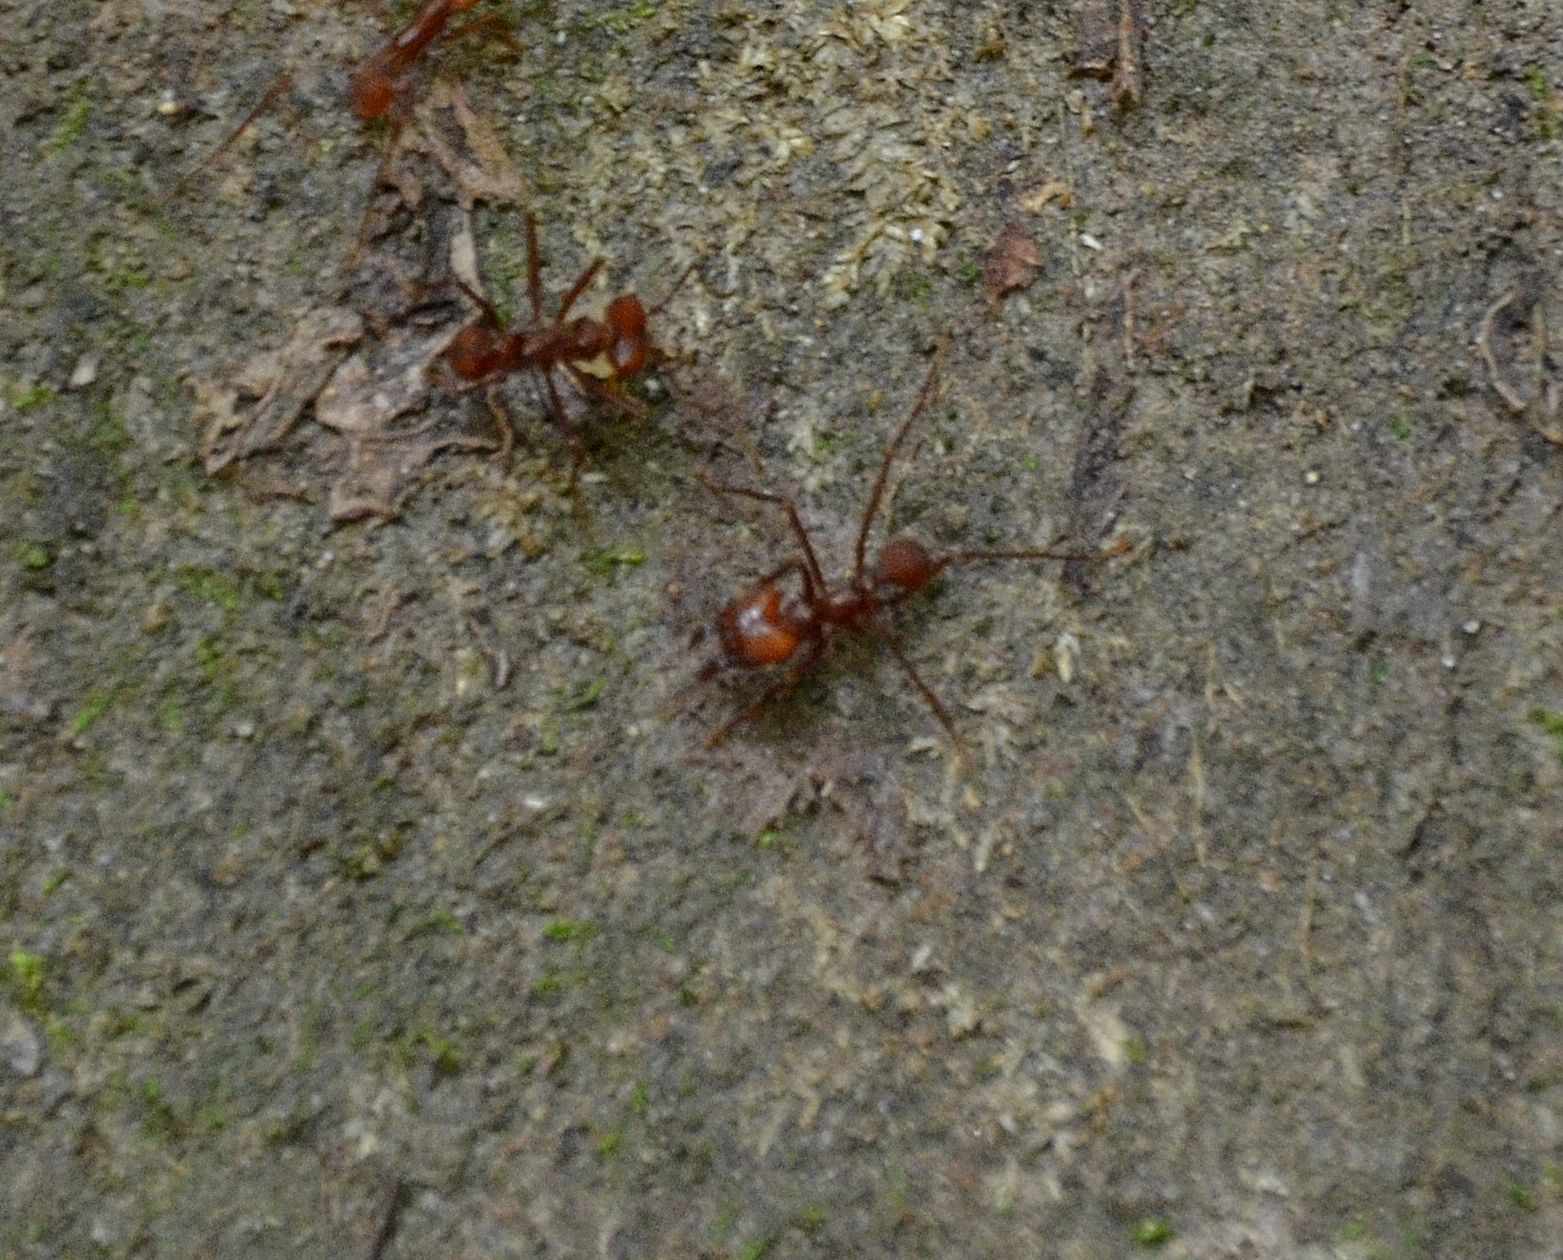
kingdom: Animalia
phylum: Arthropoda
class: Insecta
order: Hymenoptera
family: Formicidae
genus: Atta
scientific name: Atta cephalotes
